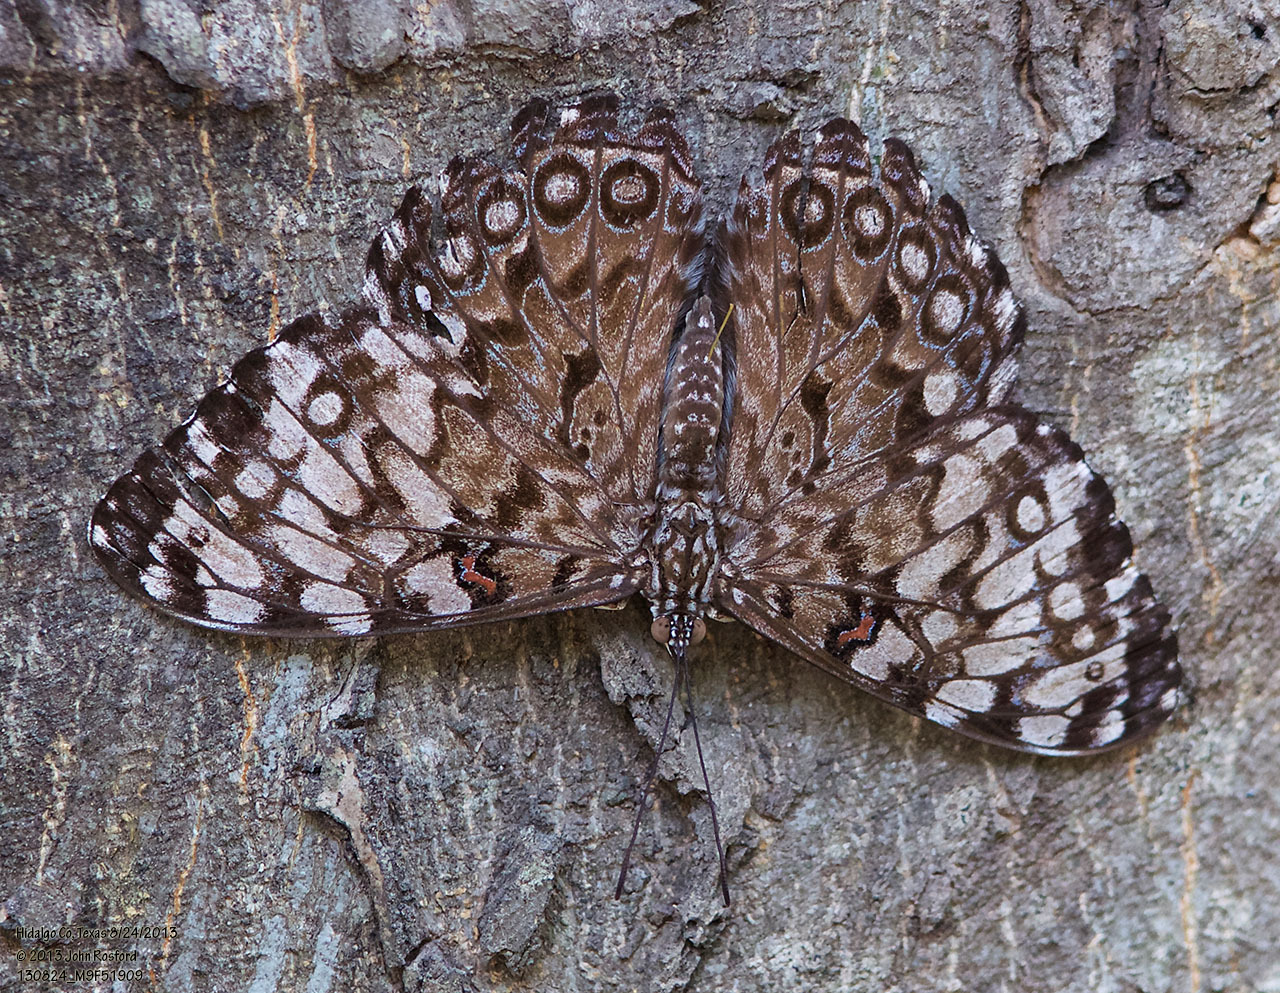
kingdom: Animalia
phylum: Arthropoda
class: Insecta
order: Lepidoptera
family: Nymphalidae
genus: Hamadryas
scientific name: Hamadryas guatemalena
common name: Guatemalan cracker
